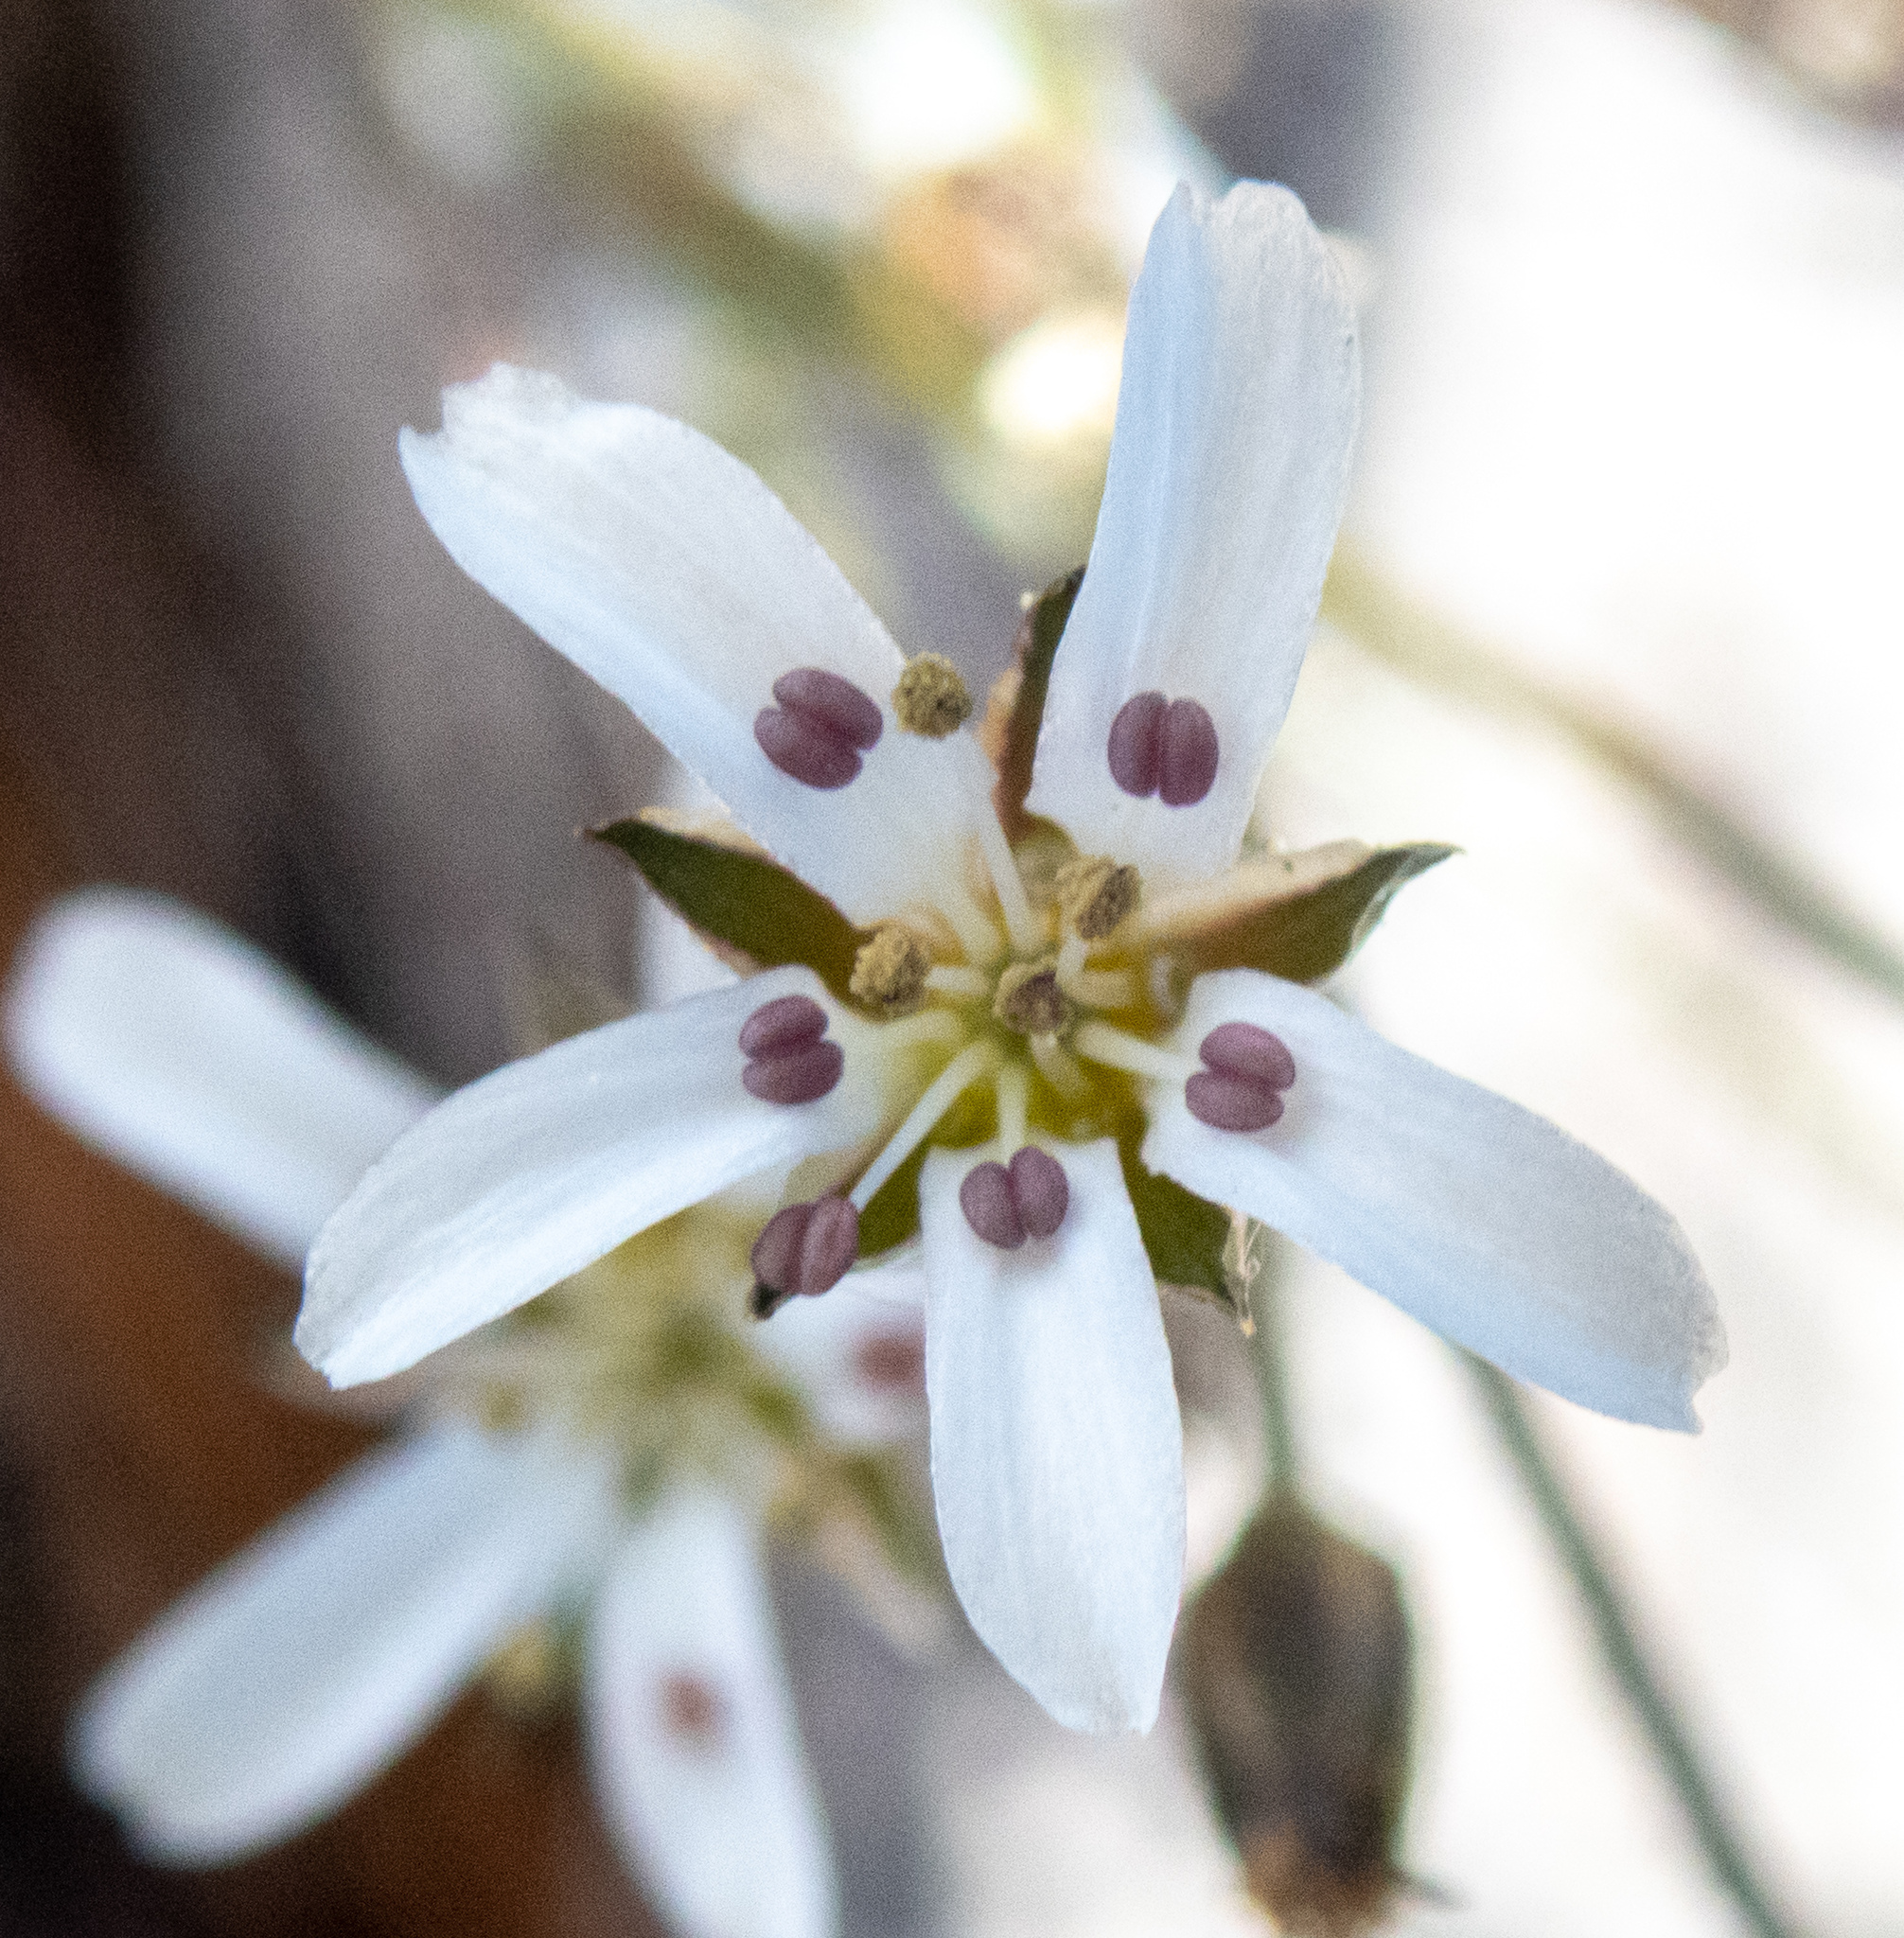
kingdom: Plantae
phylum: Tracheophyta
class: Magnoliopsida
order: Caryophyllales
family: Caryophyllaceae
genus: Eremogone
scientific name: Eremogone kingii
